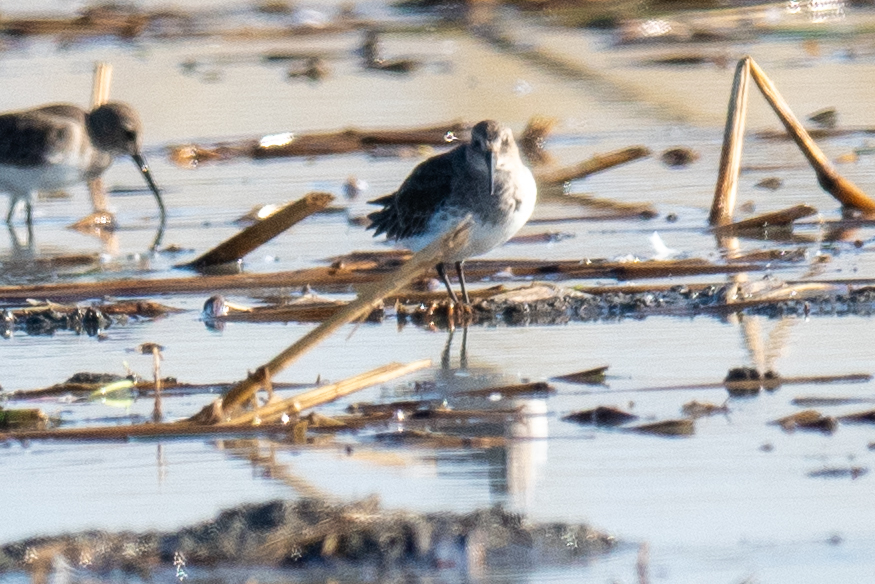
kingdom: Animalia
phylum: Chordata
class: Aves
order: Charadriiformes
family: Scolopacidae
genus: Calidris
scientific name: Calidris alpina
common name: Dunlin
